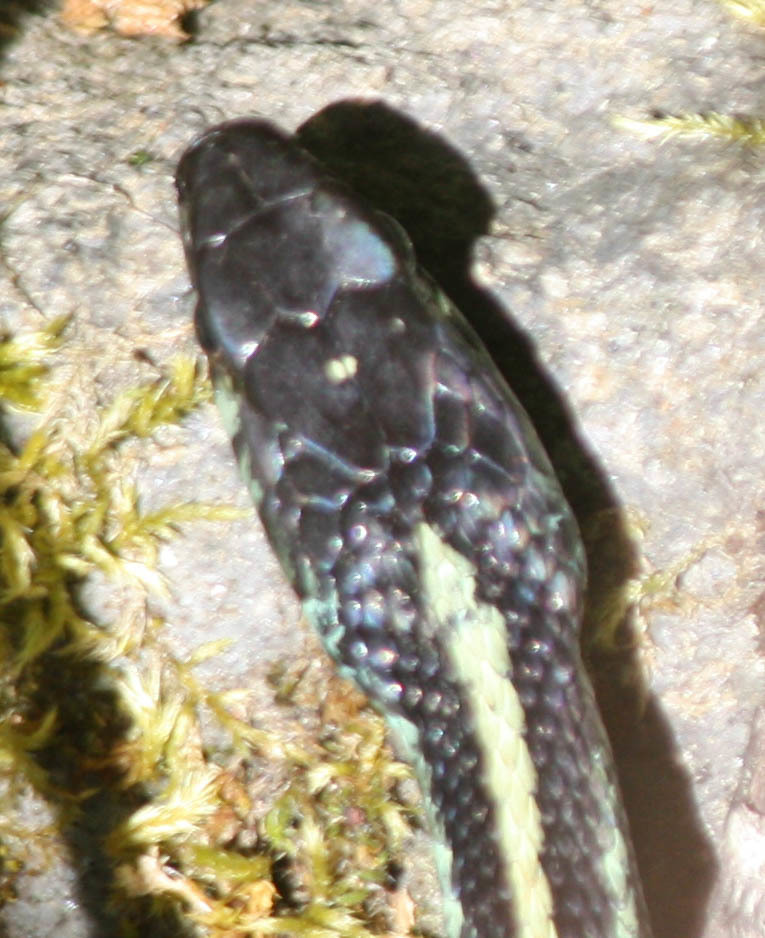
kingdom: Animalia
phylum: Chordata
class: Squamata
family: Colubridae
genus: Thamnophis
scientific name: Thamnophis sirtalis
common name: Common garter snake
